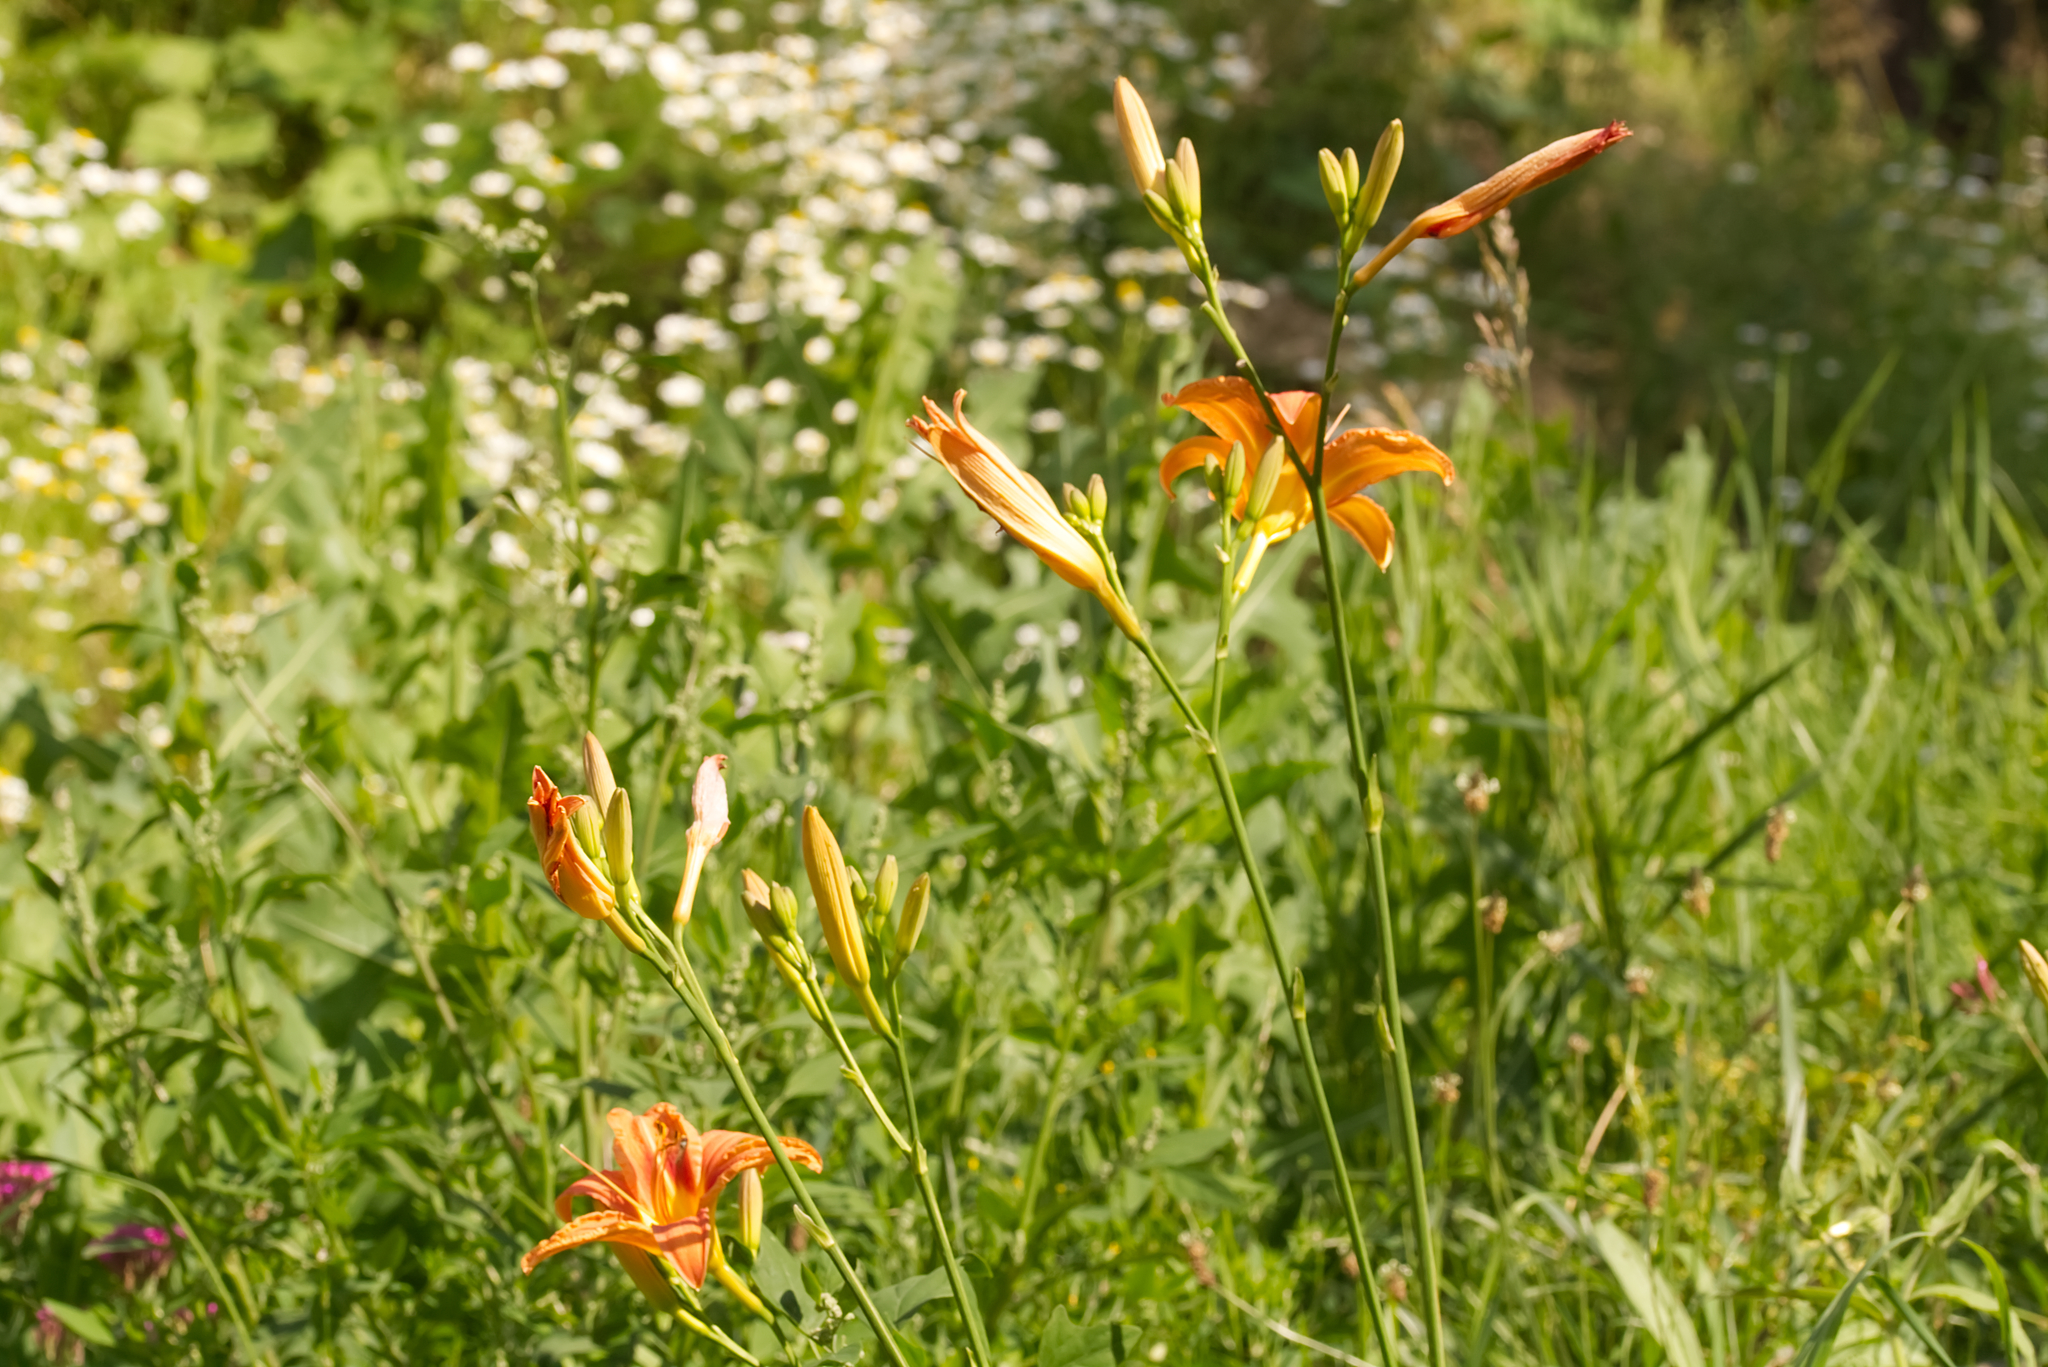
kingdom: Plantae
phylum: Tracheophyta
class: Liliopsida
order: Asparagales
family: Asphodelaceae
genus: Hemerocallis
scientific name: Hemerocallis fulva
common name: Orange day-lily
